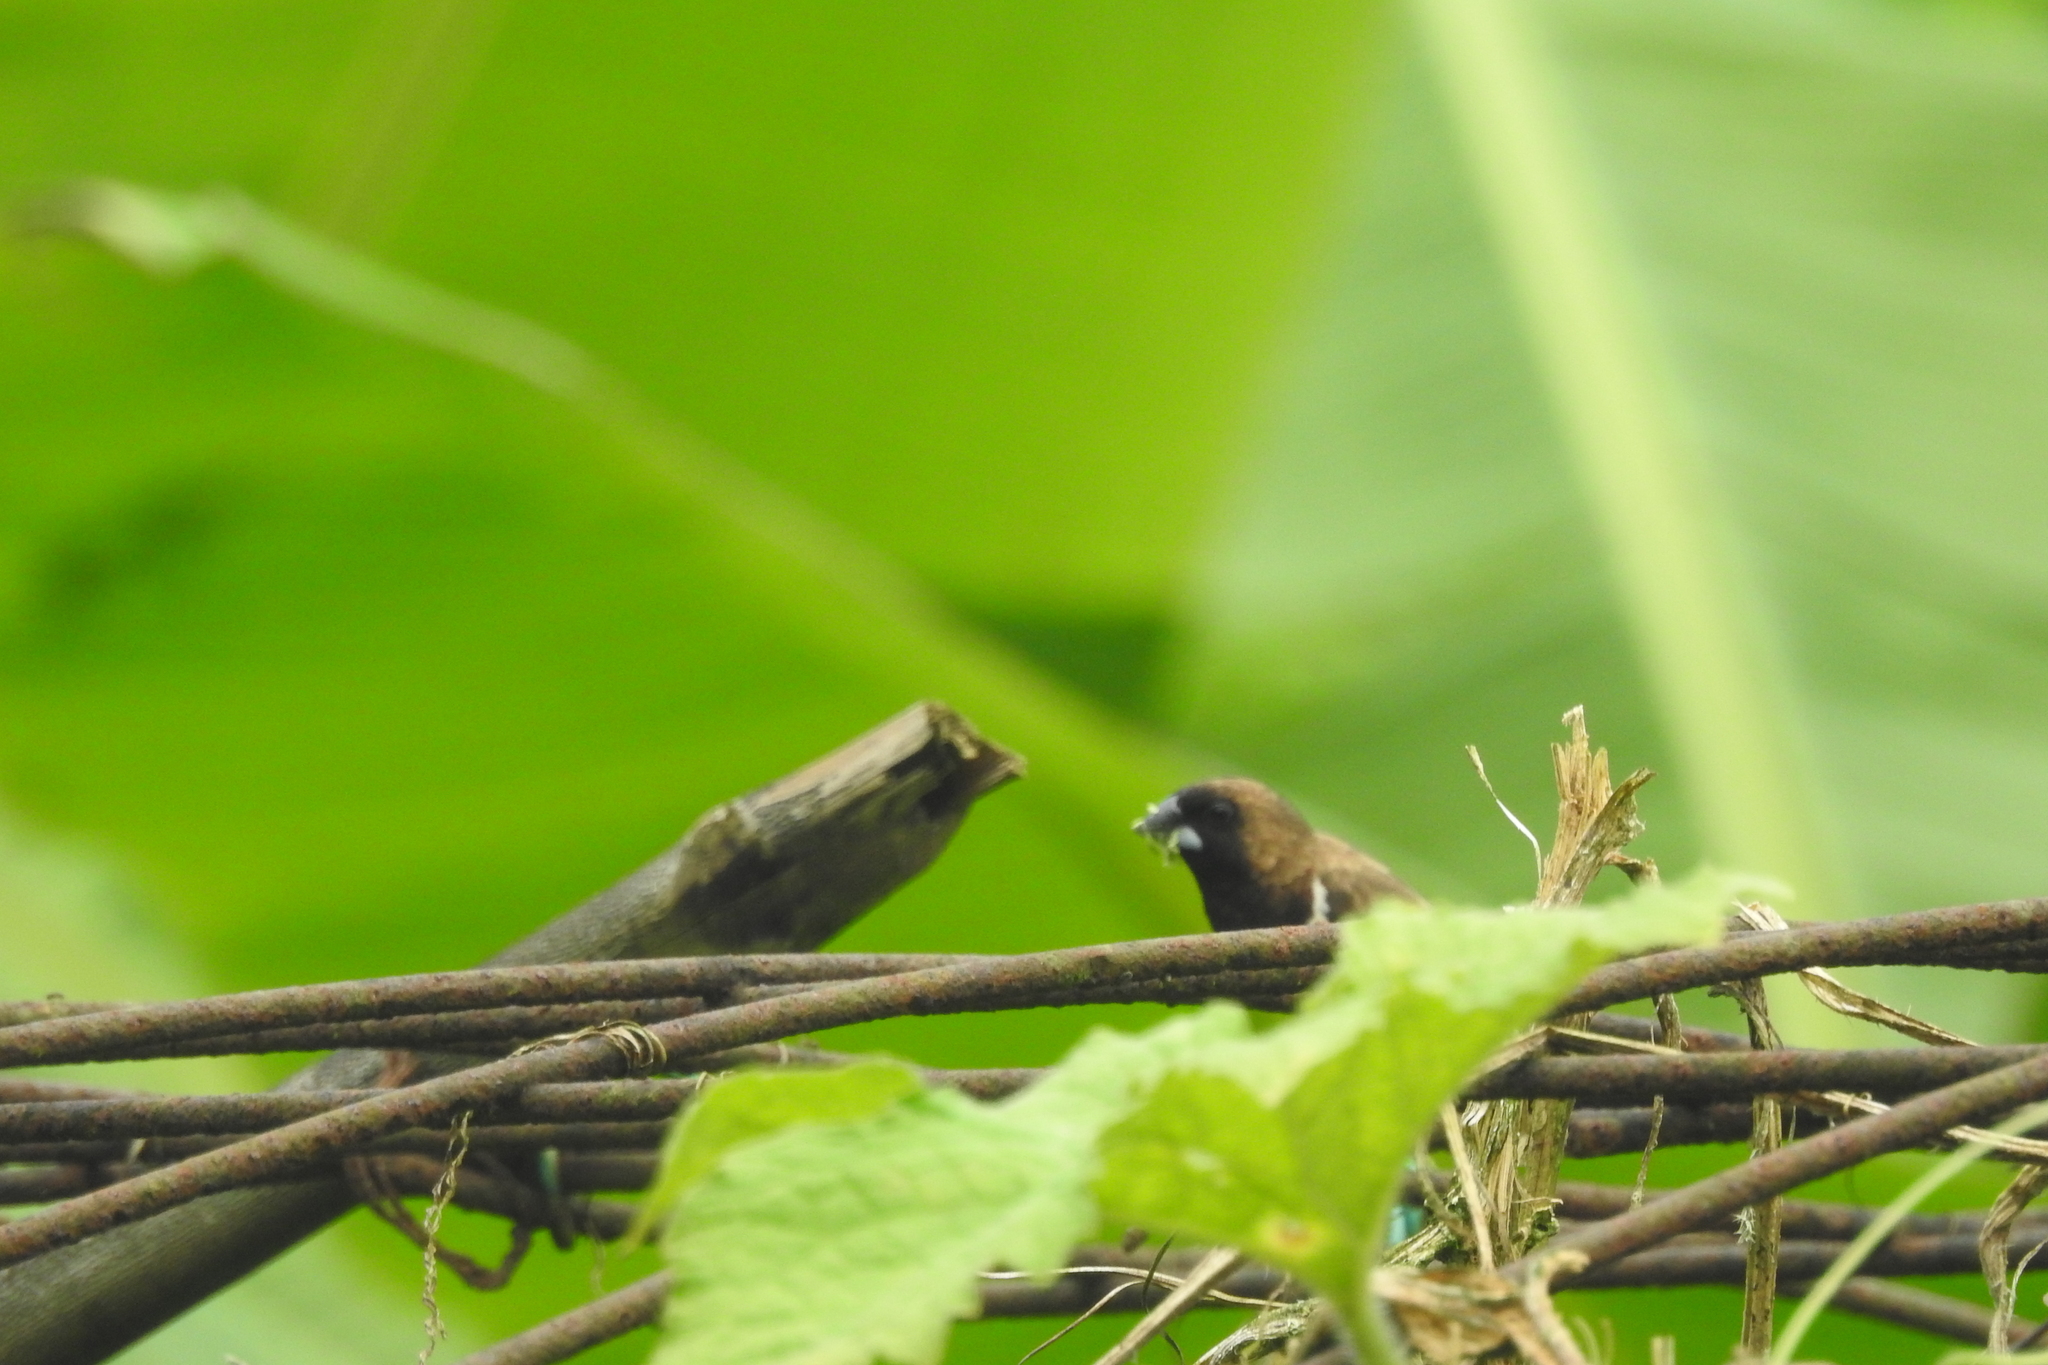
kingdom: Animalia
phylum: Chordata
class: Aves
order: Passeriformes
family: Estrildidae
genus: Lonchura
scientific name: Lonchura leucogastroides
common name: Javan munia
